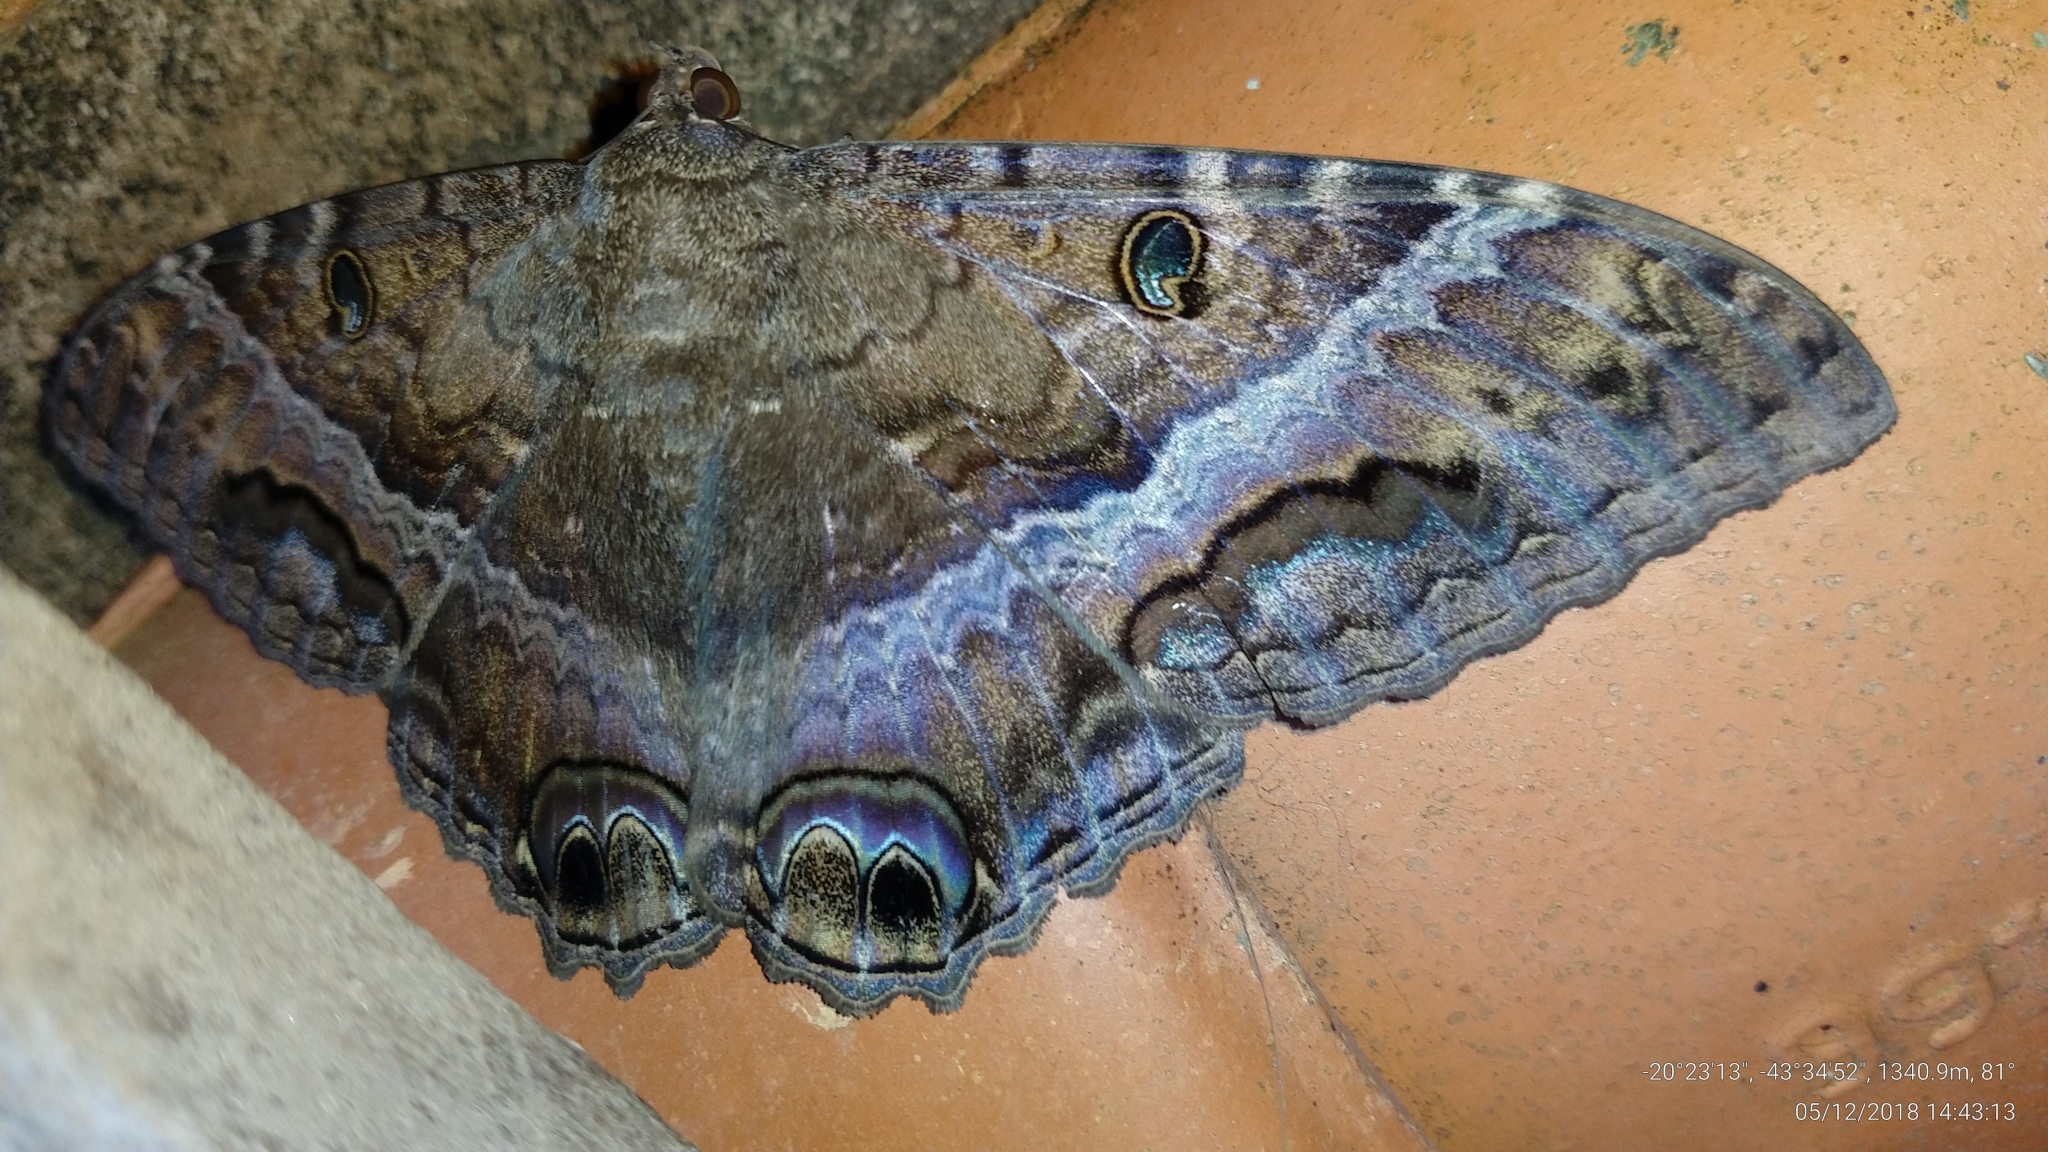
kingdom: Animalia
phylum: Arthropoda
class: Insecta
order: Lepidoptera
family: Erebidae
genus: Ascalapha
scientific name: Ascalapha odorata
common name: Black witch
